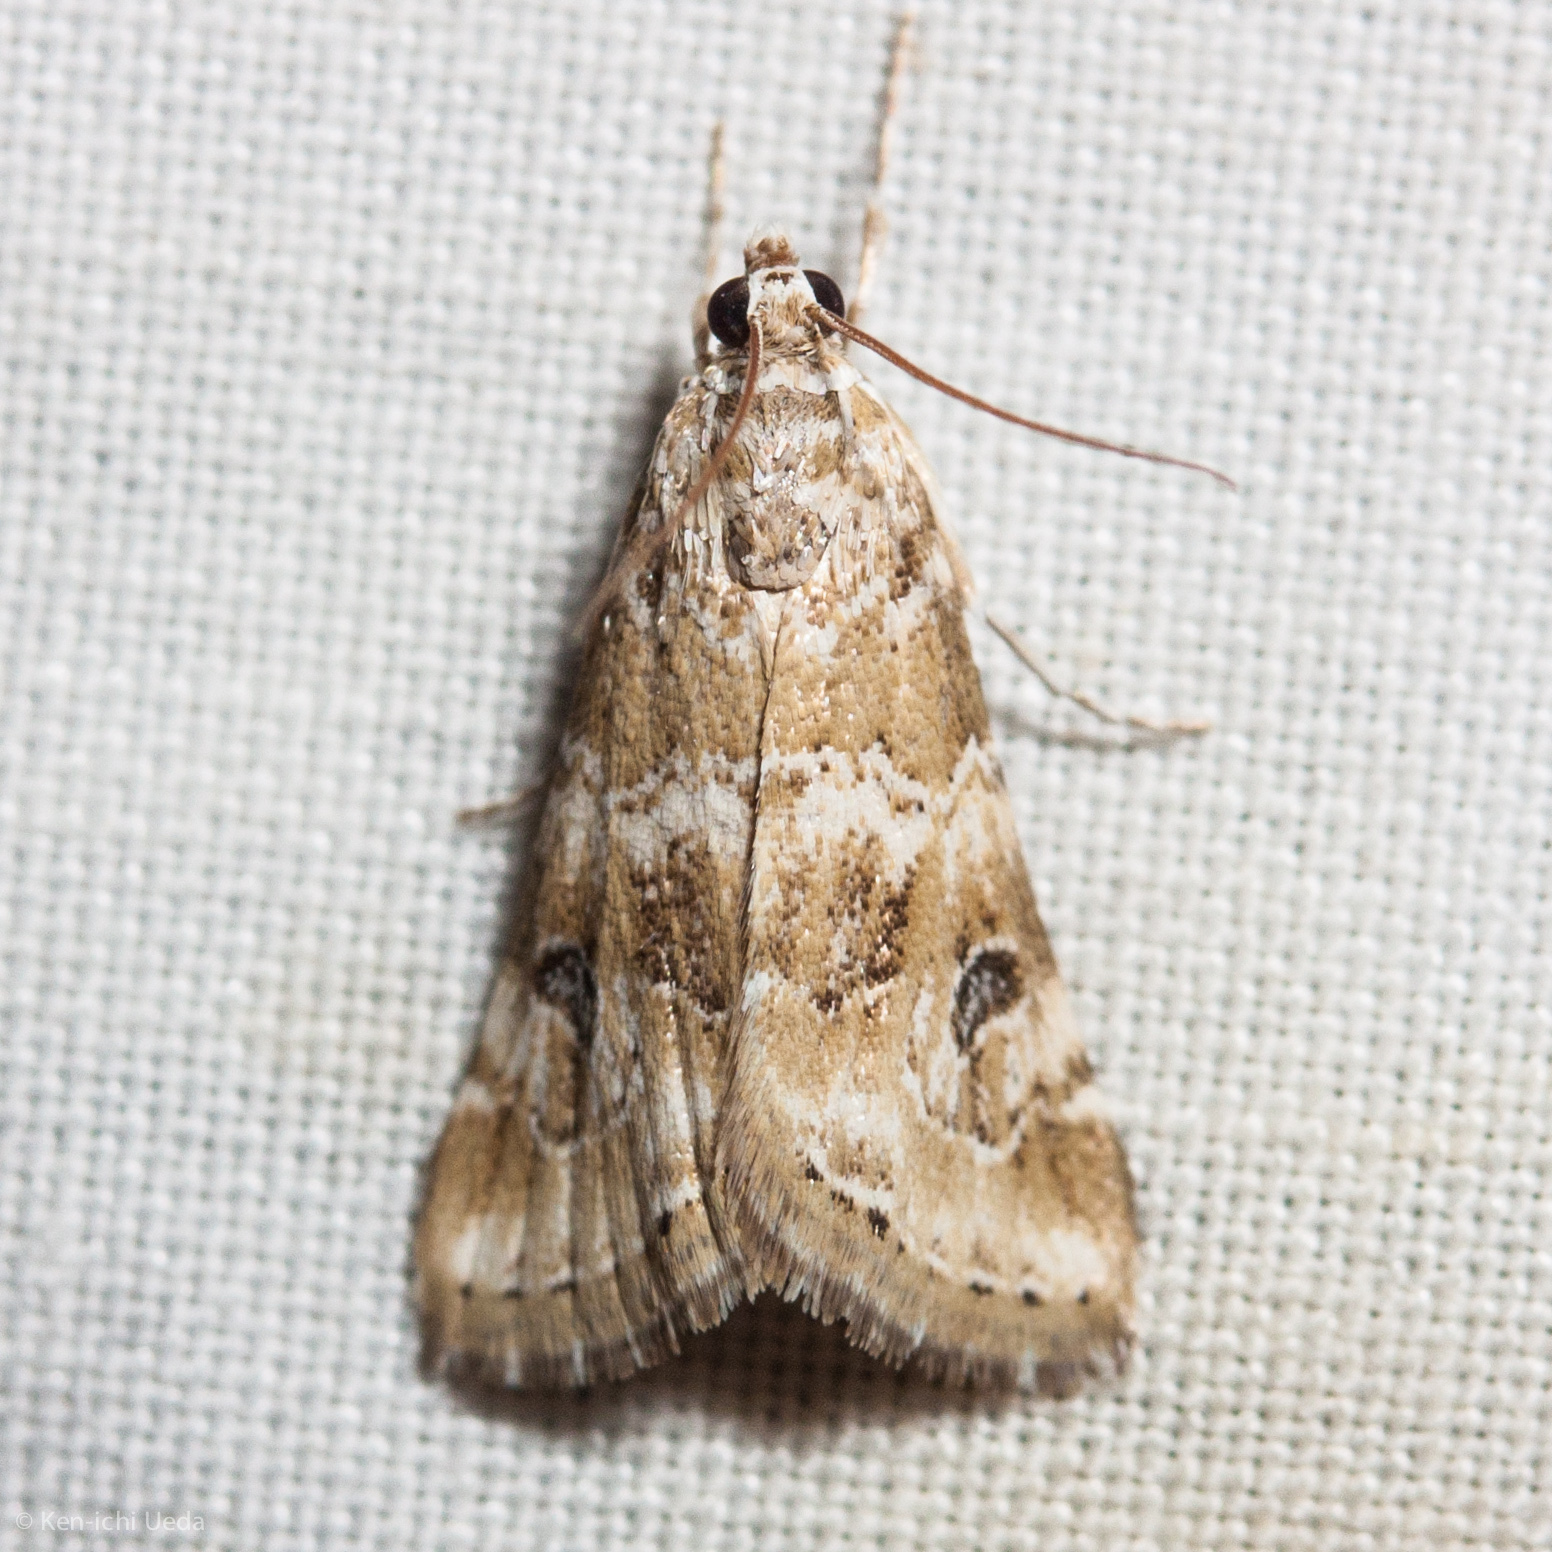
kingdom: Animalia
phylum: Arthropoda
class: Insecta
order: Lepidoptera
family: Crambidae
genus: Hellula
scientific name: Hellula rogatalis
